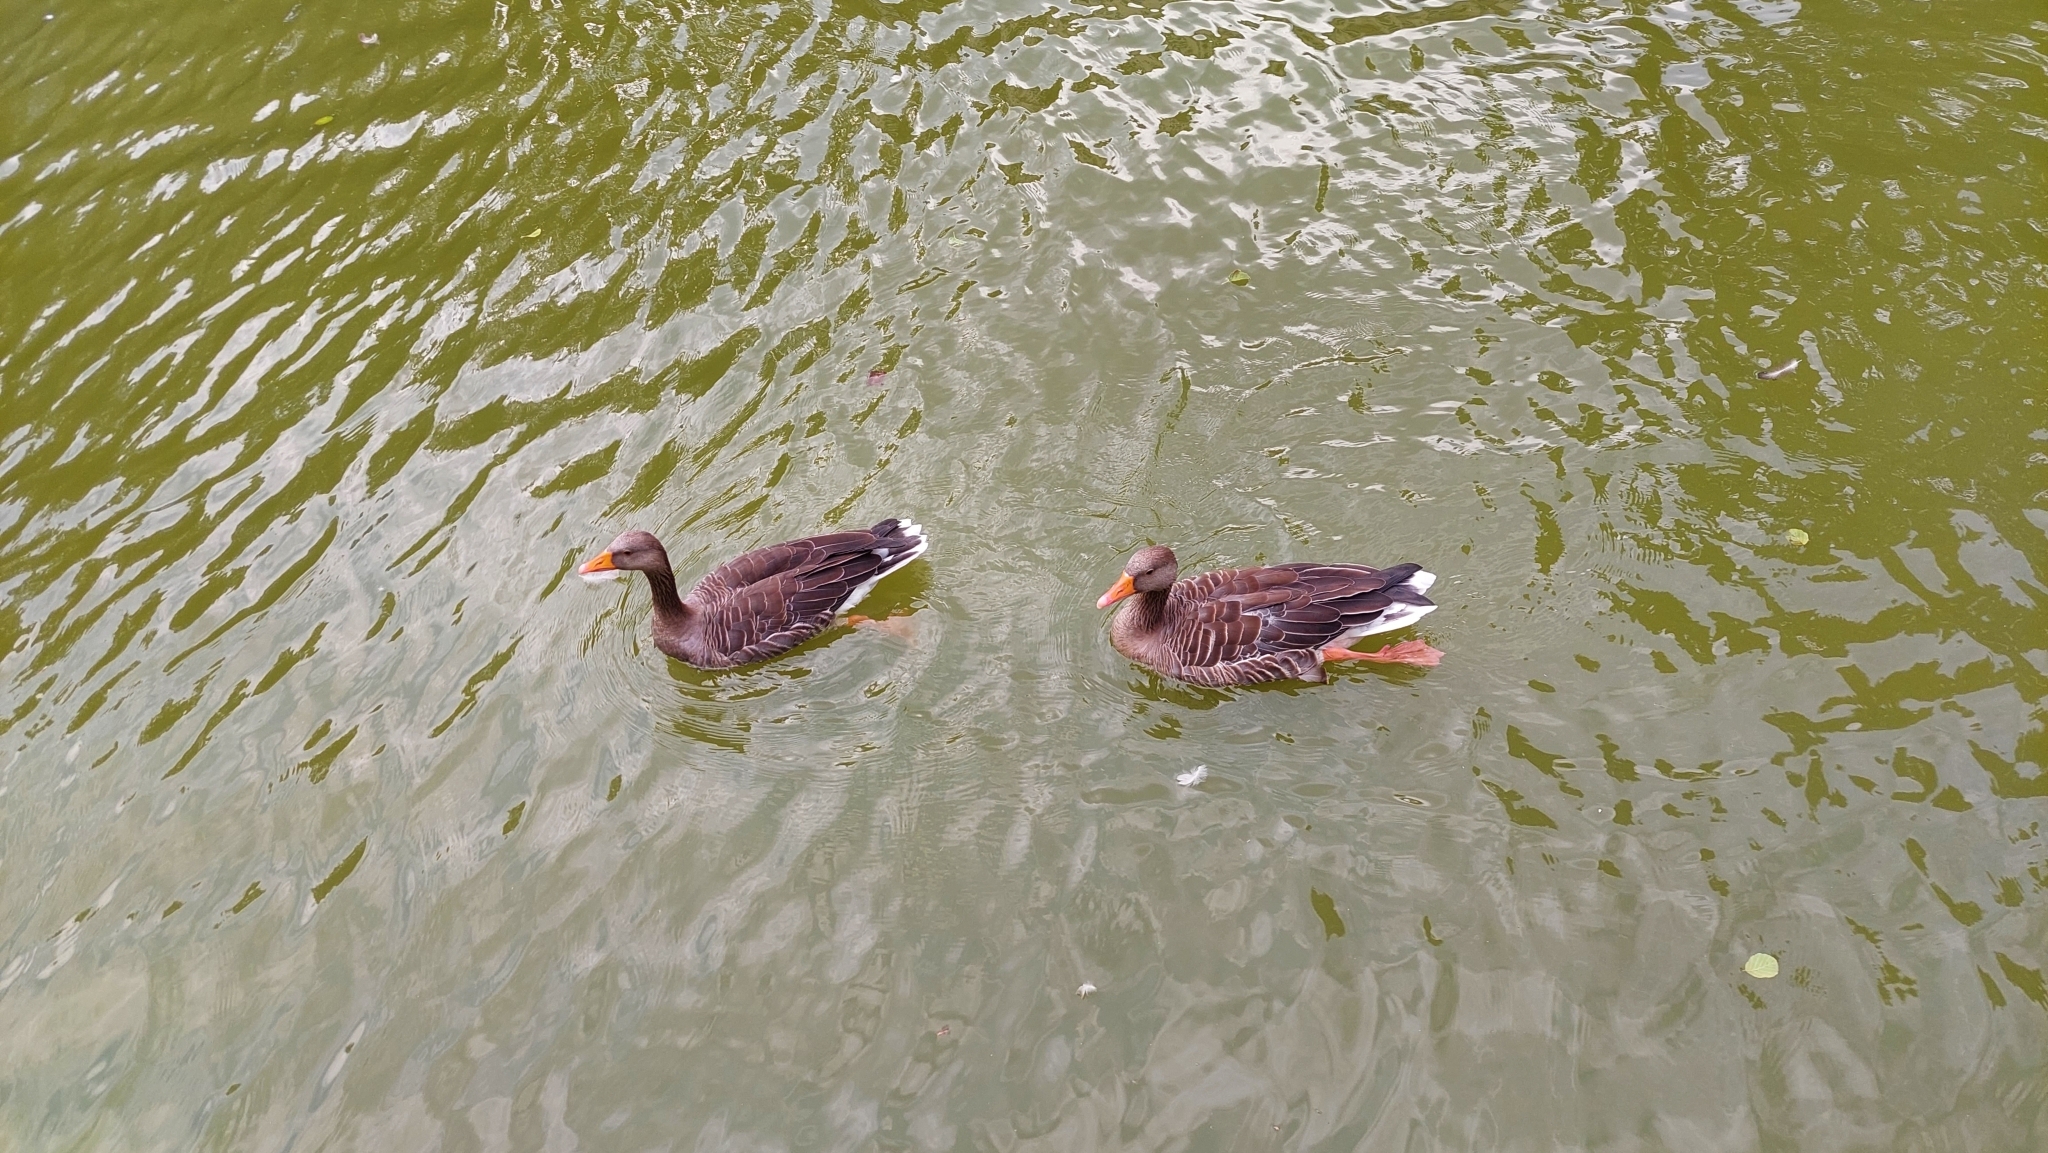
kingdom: Animalia
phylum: Chordata
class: Aves
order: Anseriformes
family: Anatidae
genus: Anser
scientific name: Anser anser
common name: Greylag goose
